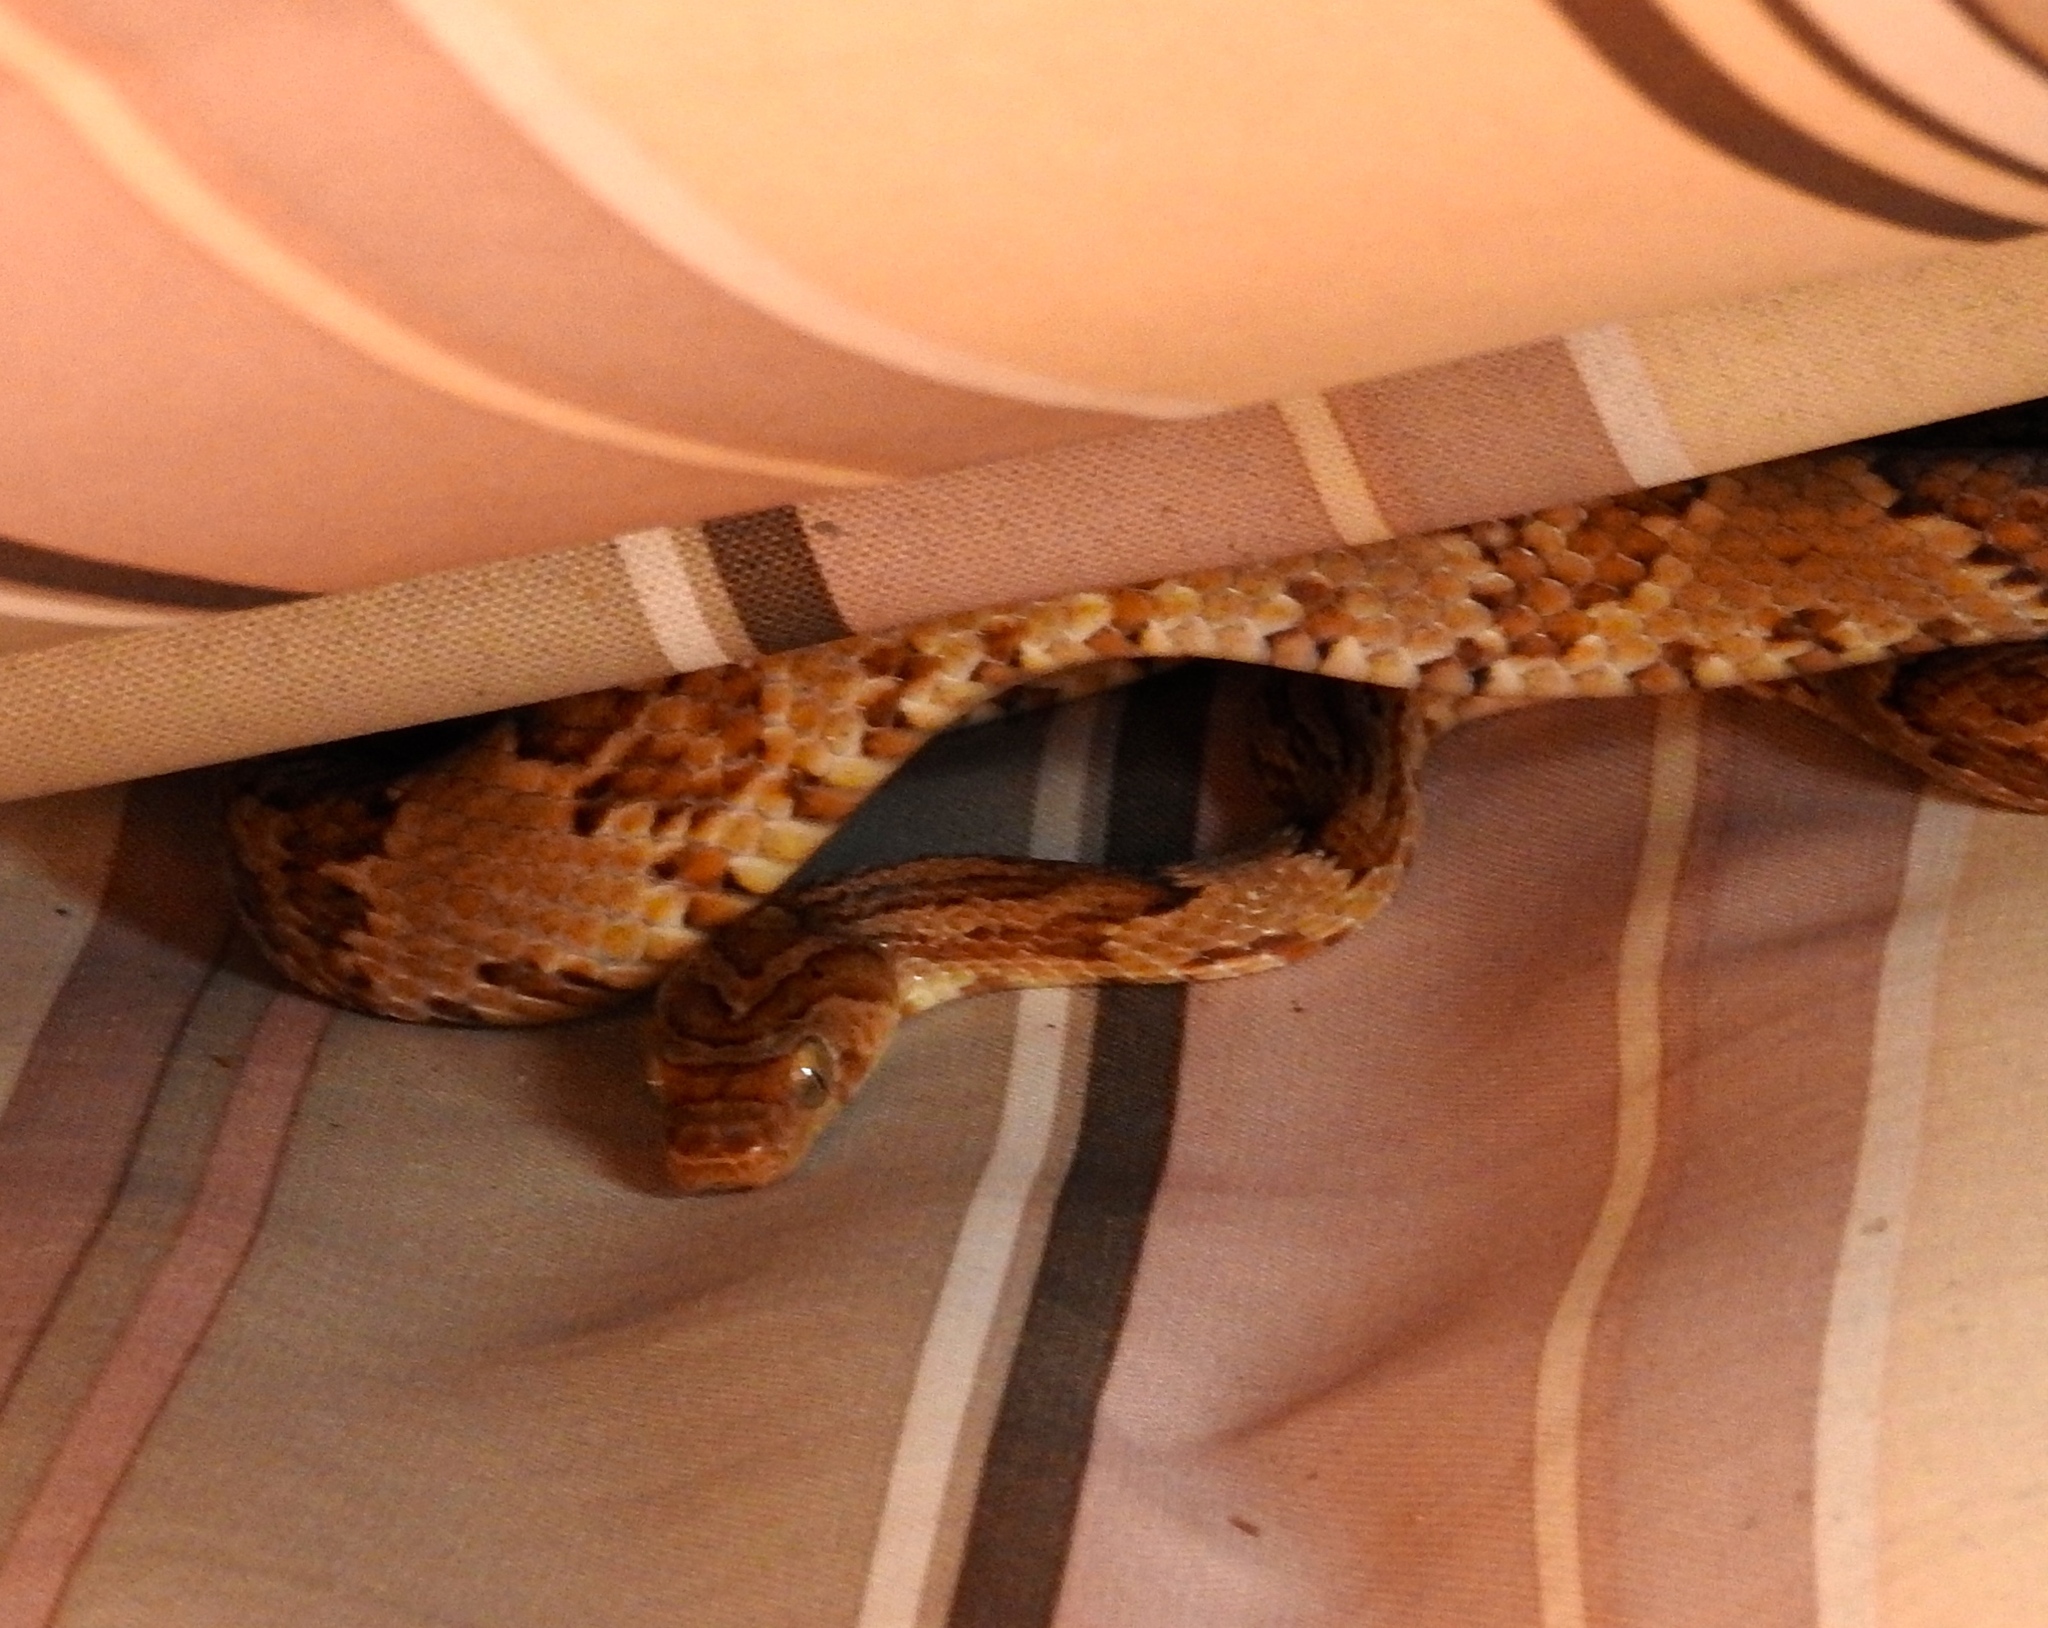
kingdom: Animalia
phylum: Chordata
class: Squamata
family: Colubridae
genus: Trimorphodon
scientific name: Trimorphodon paucimaculatus
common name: Sinaloan lyresnake
